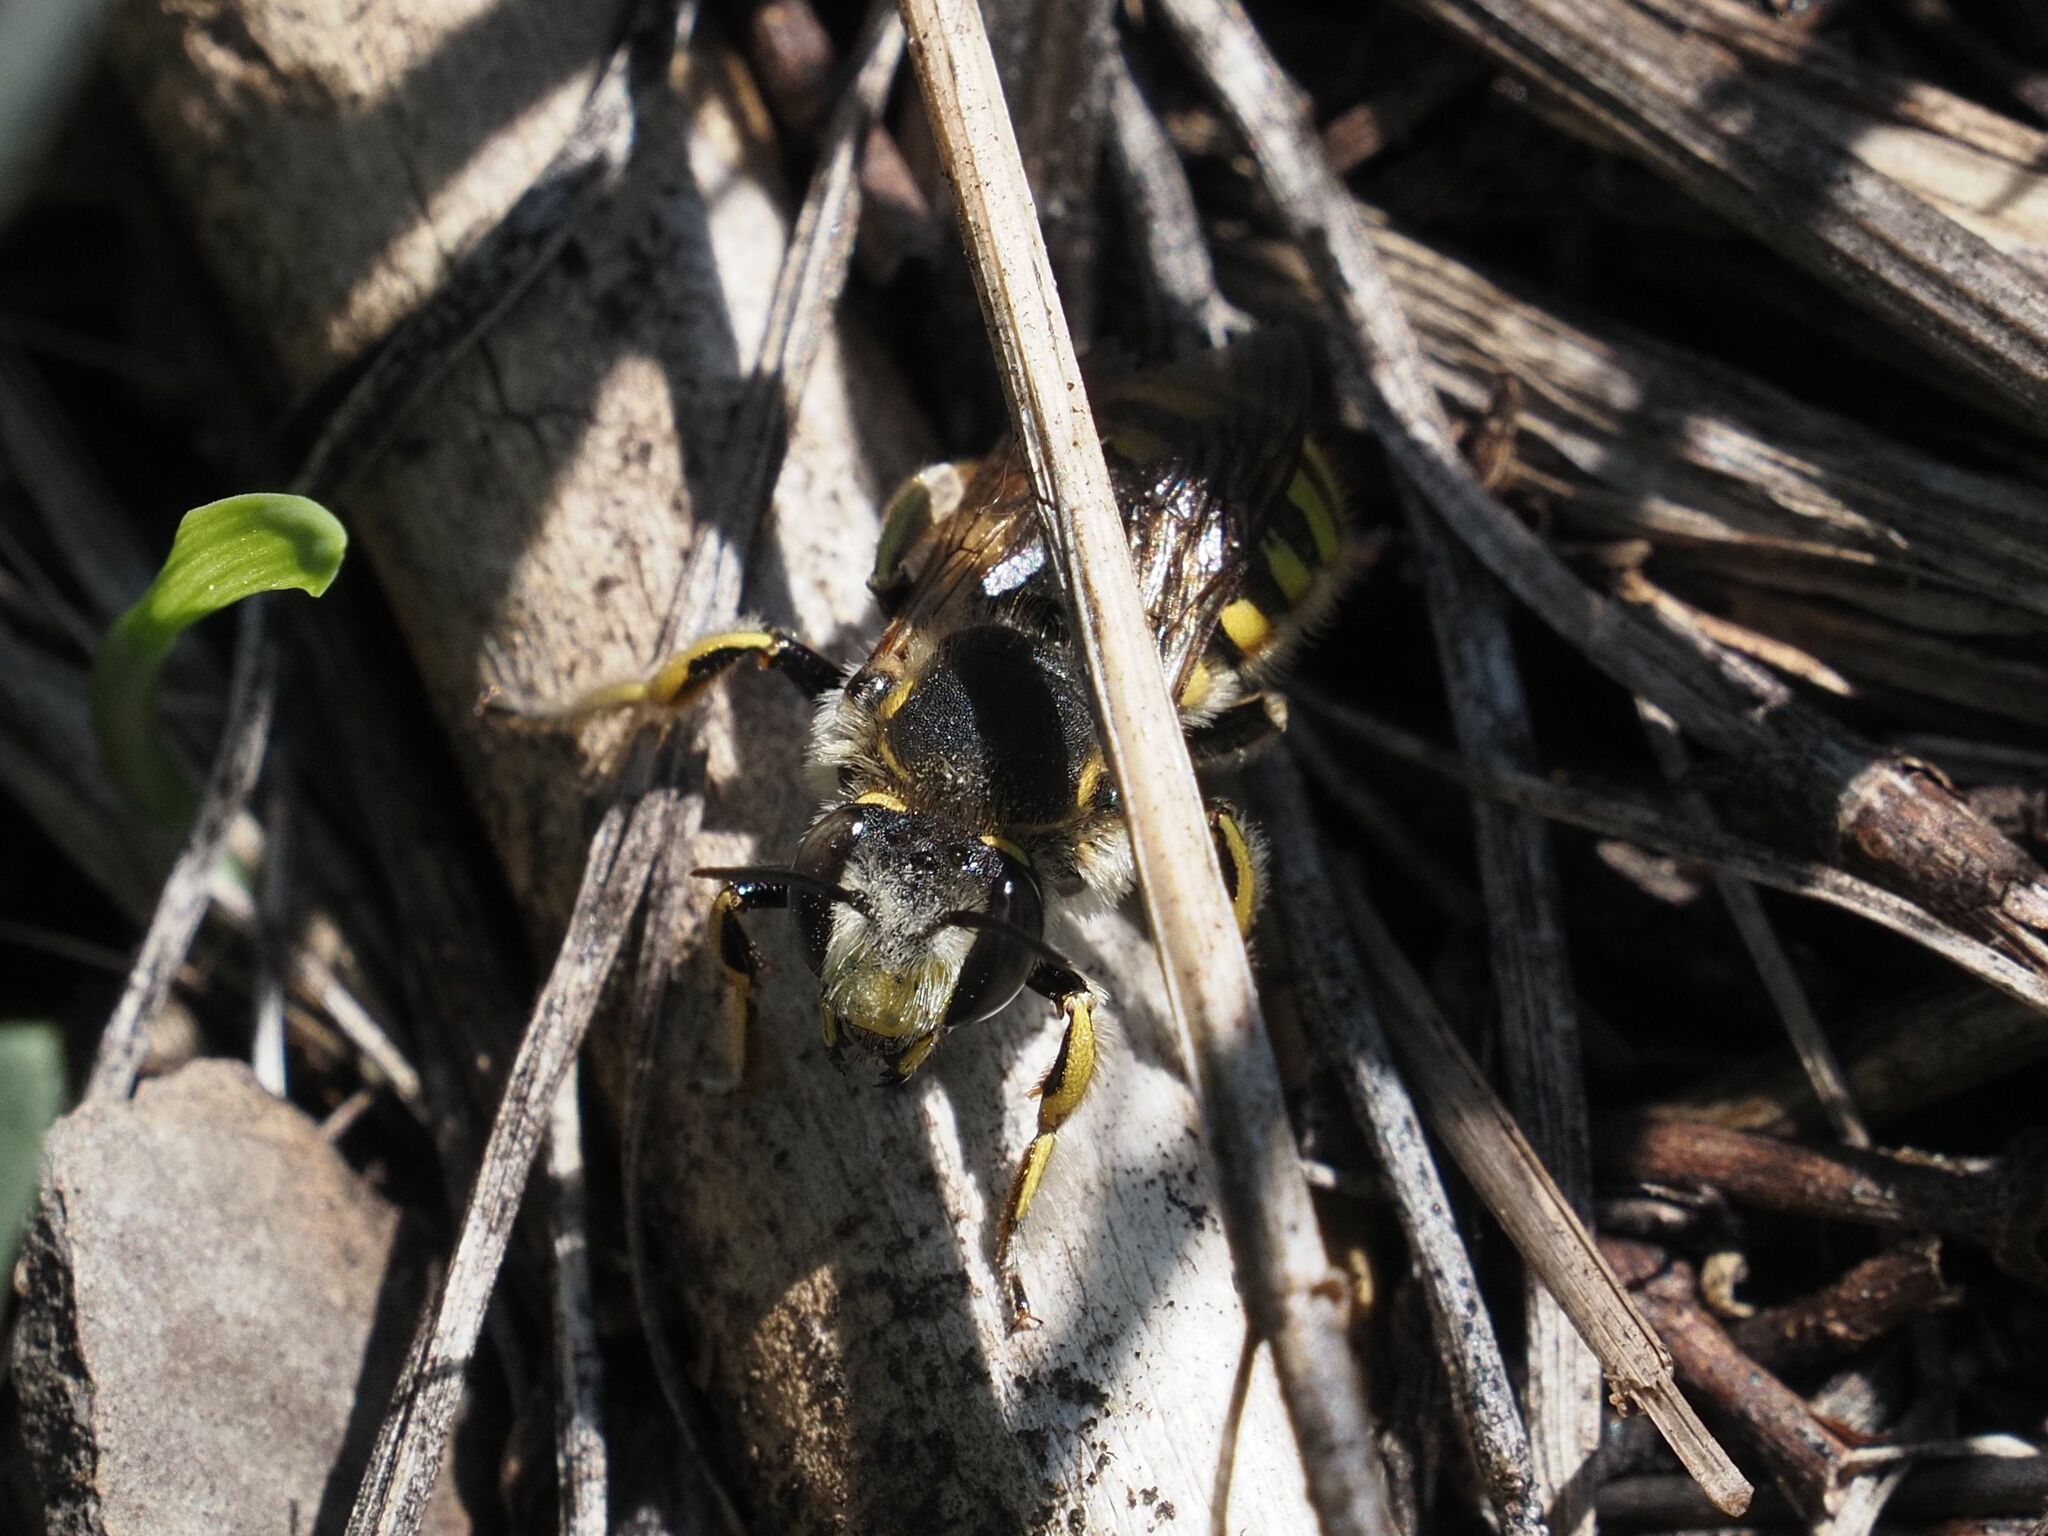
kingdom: Animalia
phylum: Arthropoda
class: Insecta
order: Hymenoptera
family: Megachilidae
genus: Anthidium
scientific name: Anthidium manicatum
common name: Wool carder bee
